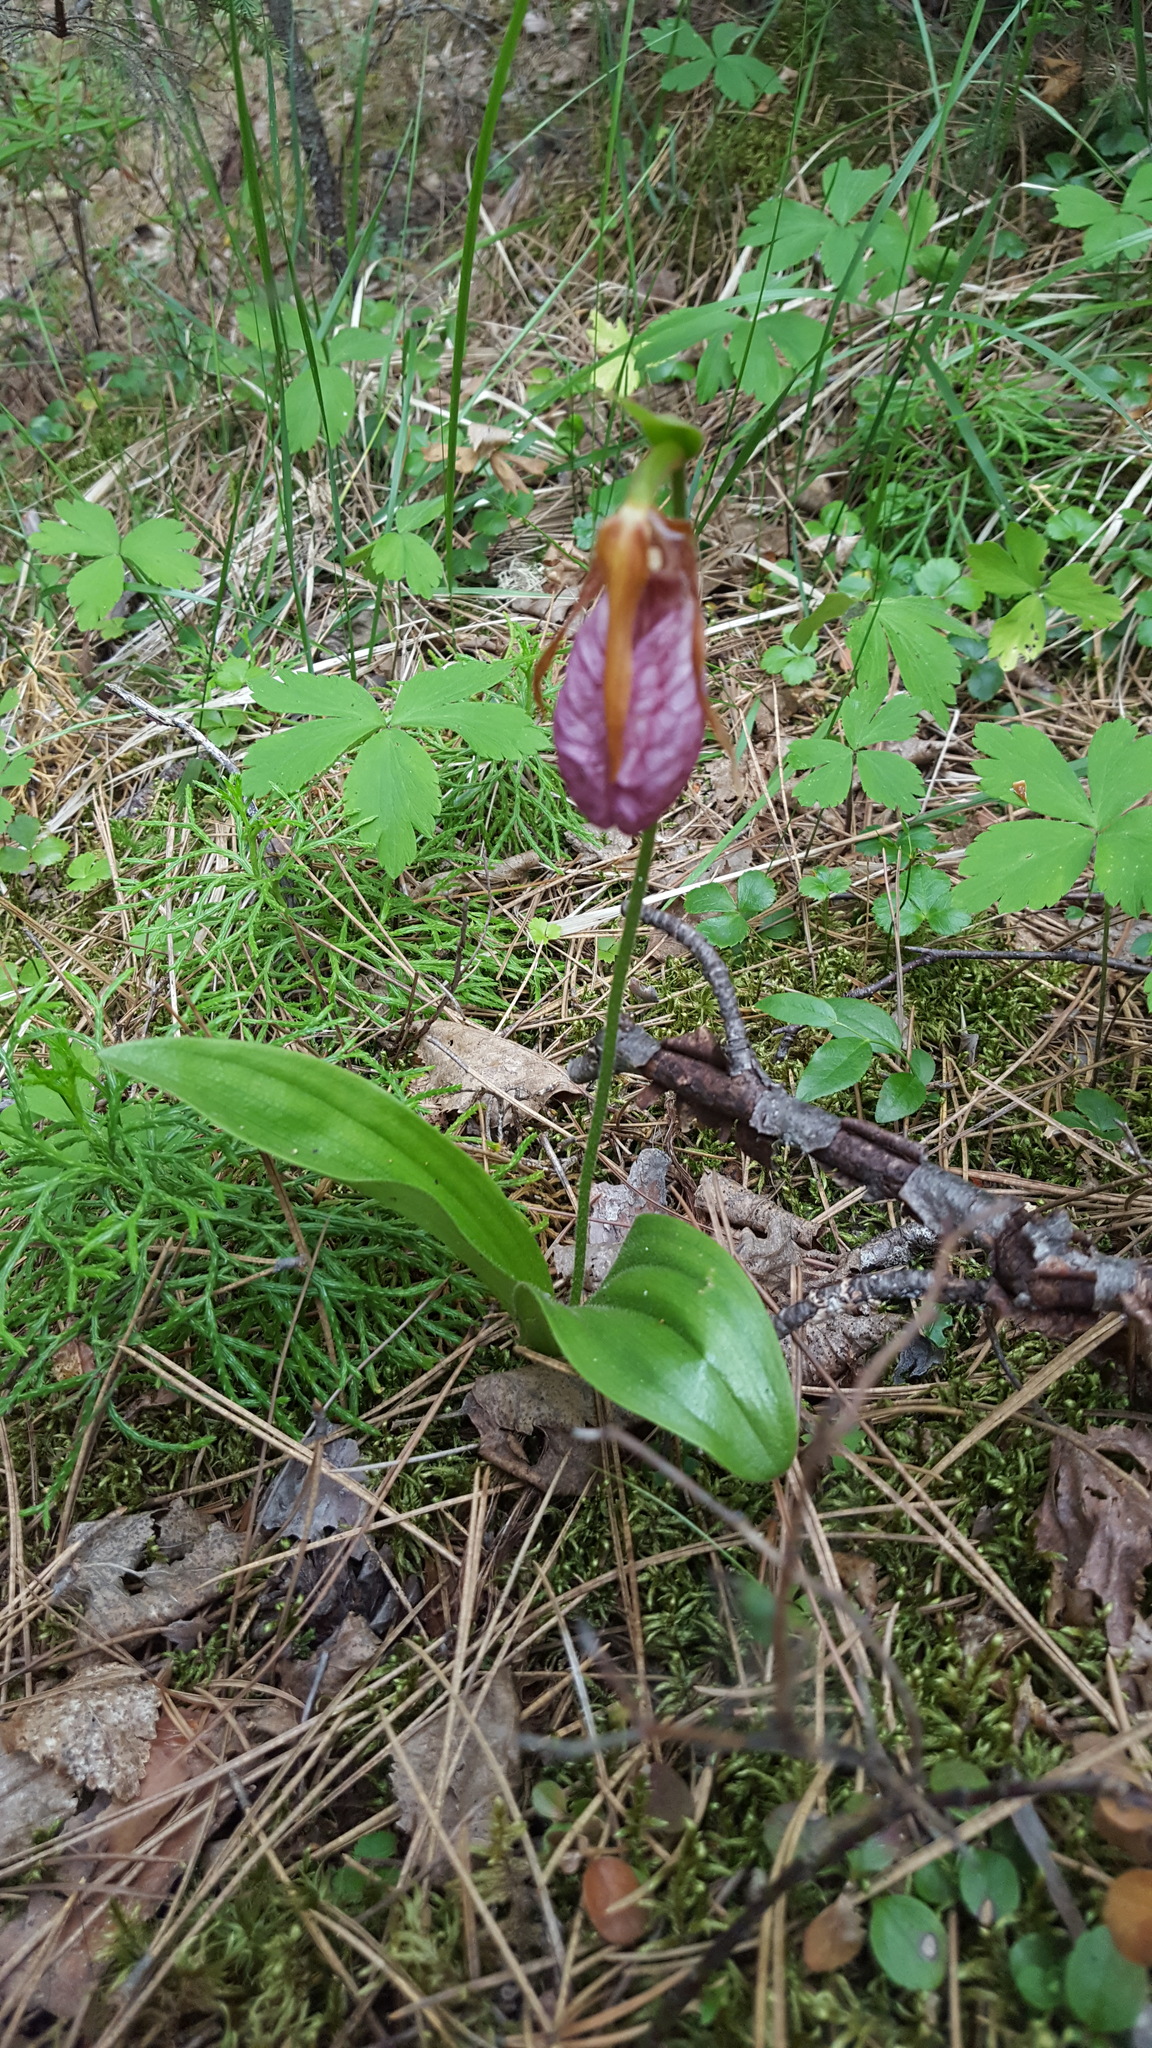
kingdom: Plantae
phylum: Tracheophyta
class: Liliopsida
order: Asparagales
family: Orchidaceae
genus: Cypripedium
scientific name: Cypripedium acaule
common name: Pink lady's-slipper
